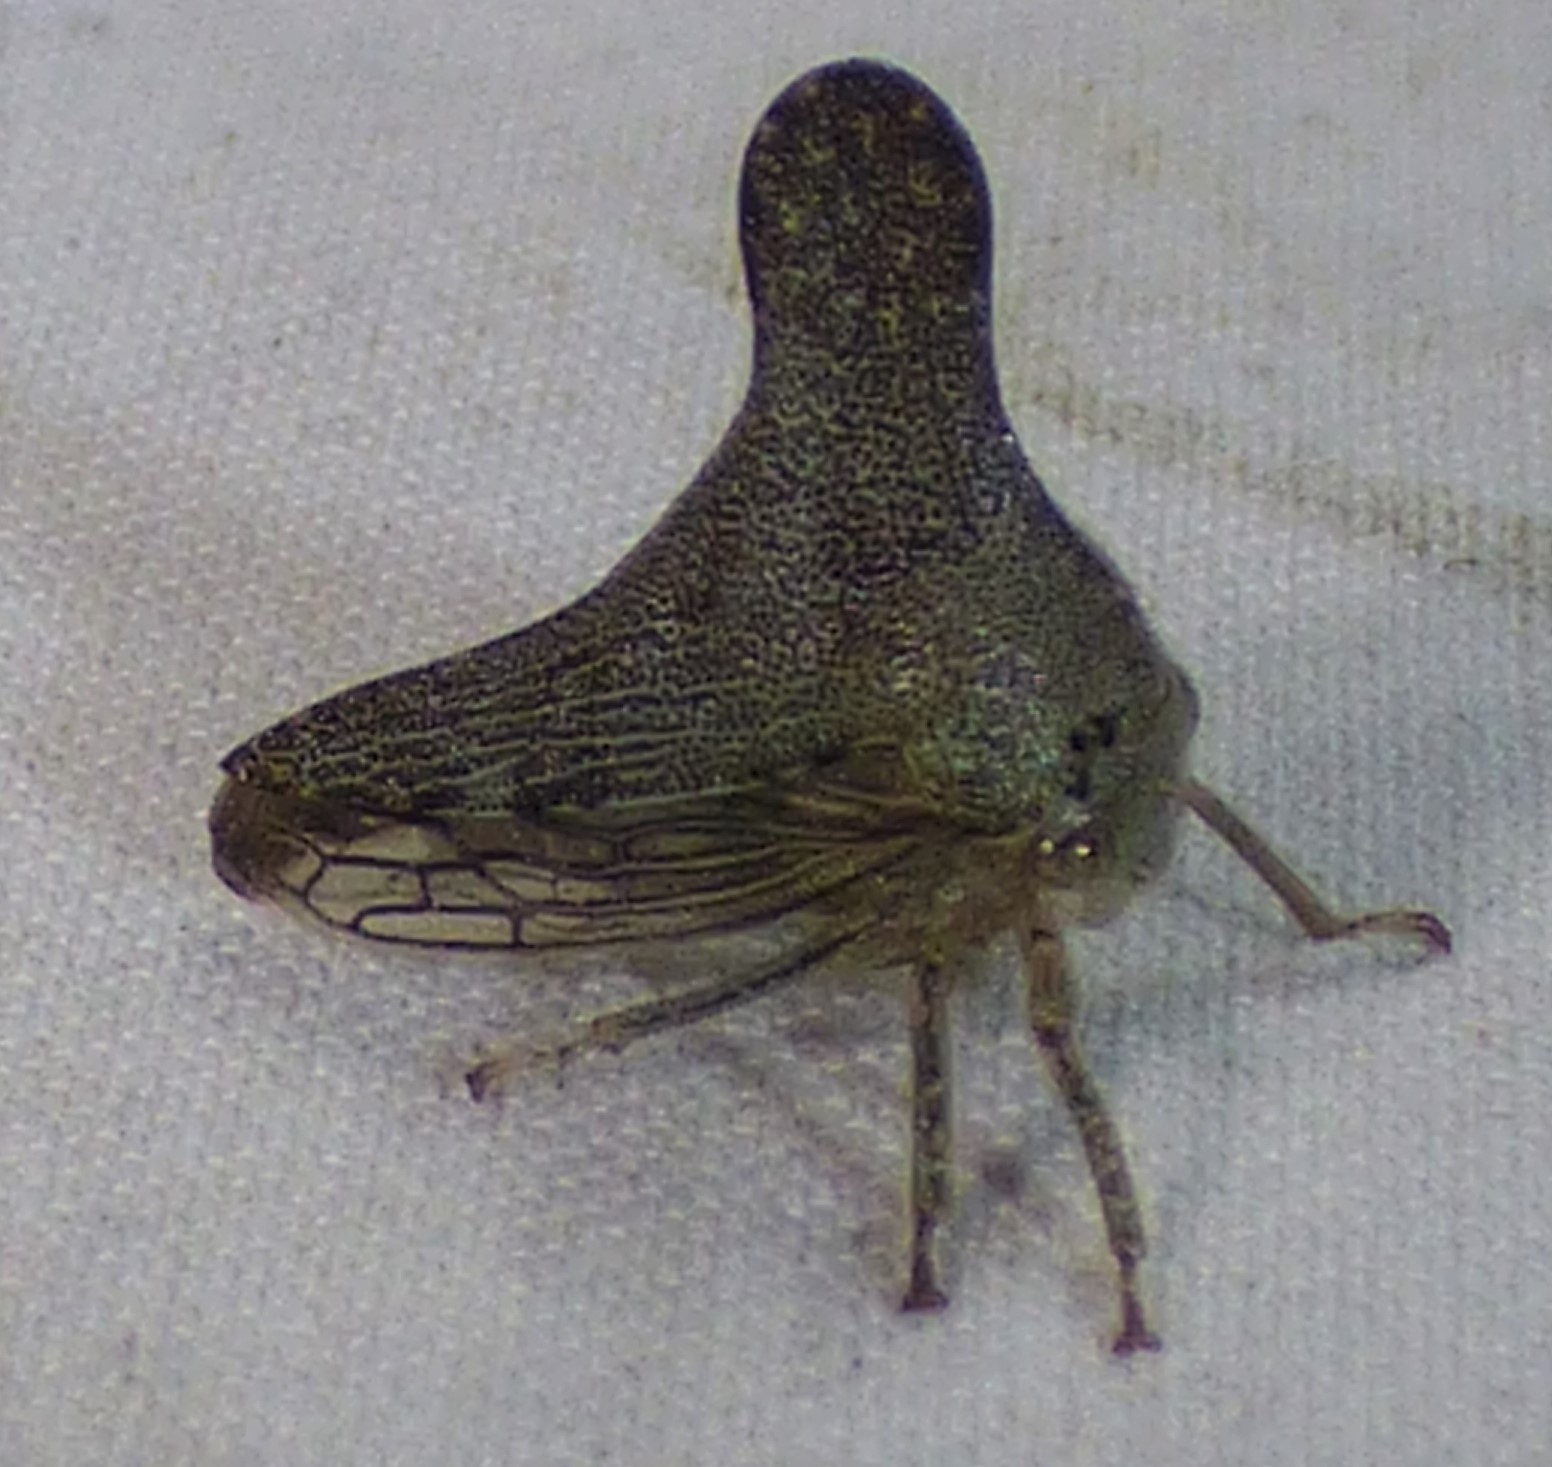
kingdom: Animalia
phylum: Arthropoda
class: Insecta
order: Hemiptera
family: Membracidae
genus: Telonaca
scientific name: Telonaca alta
